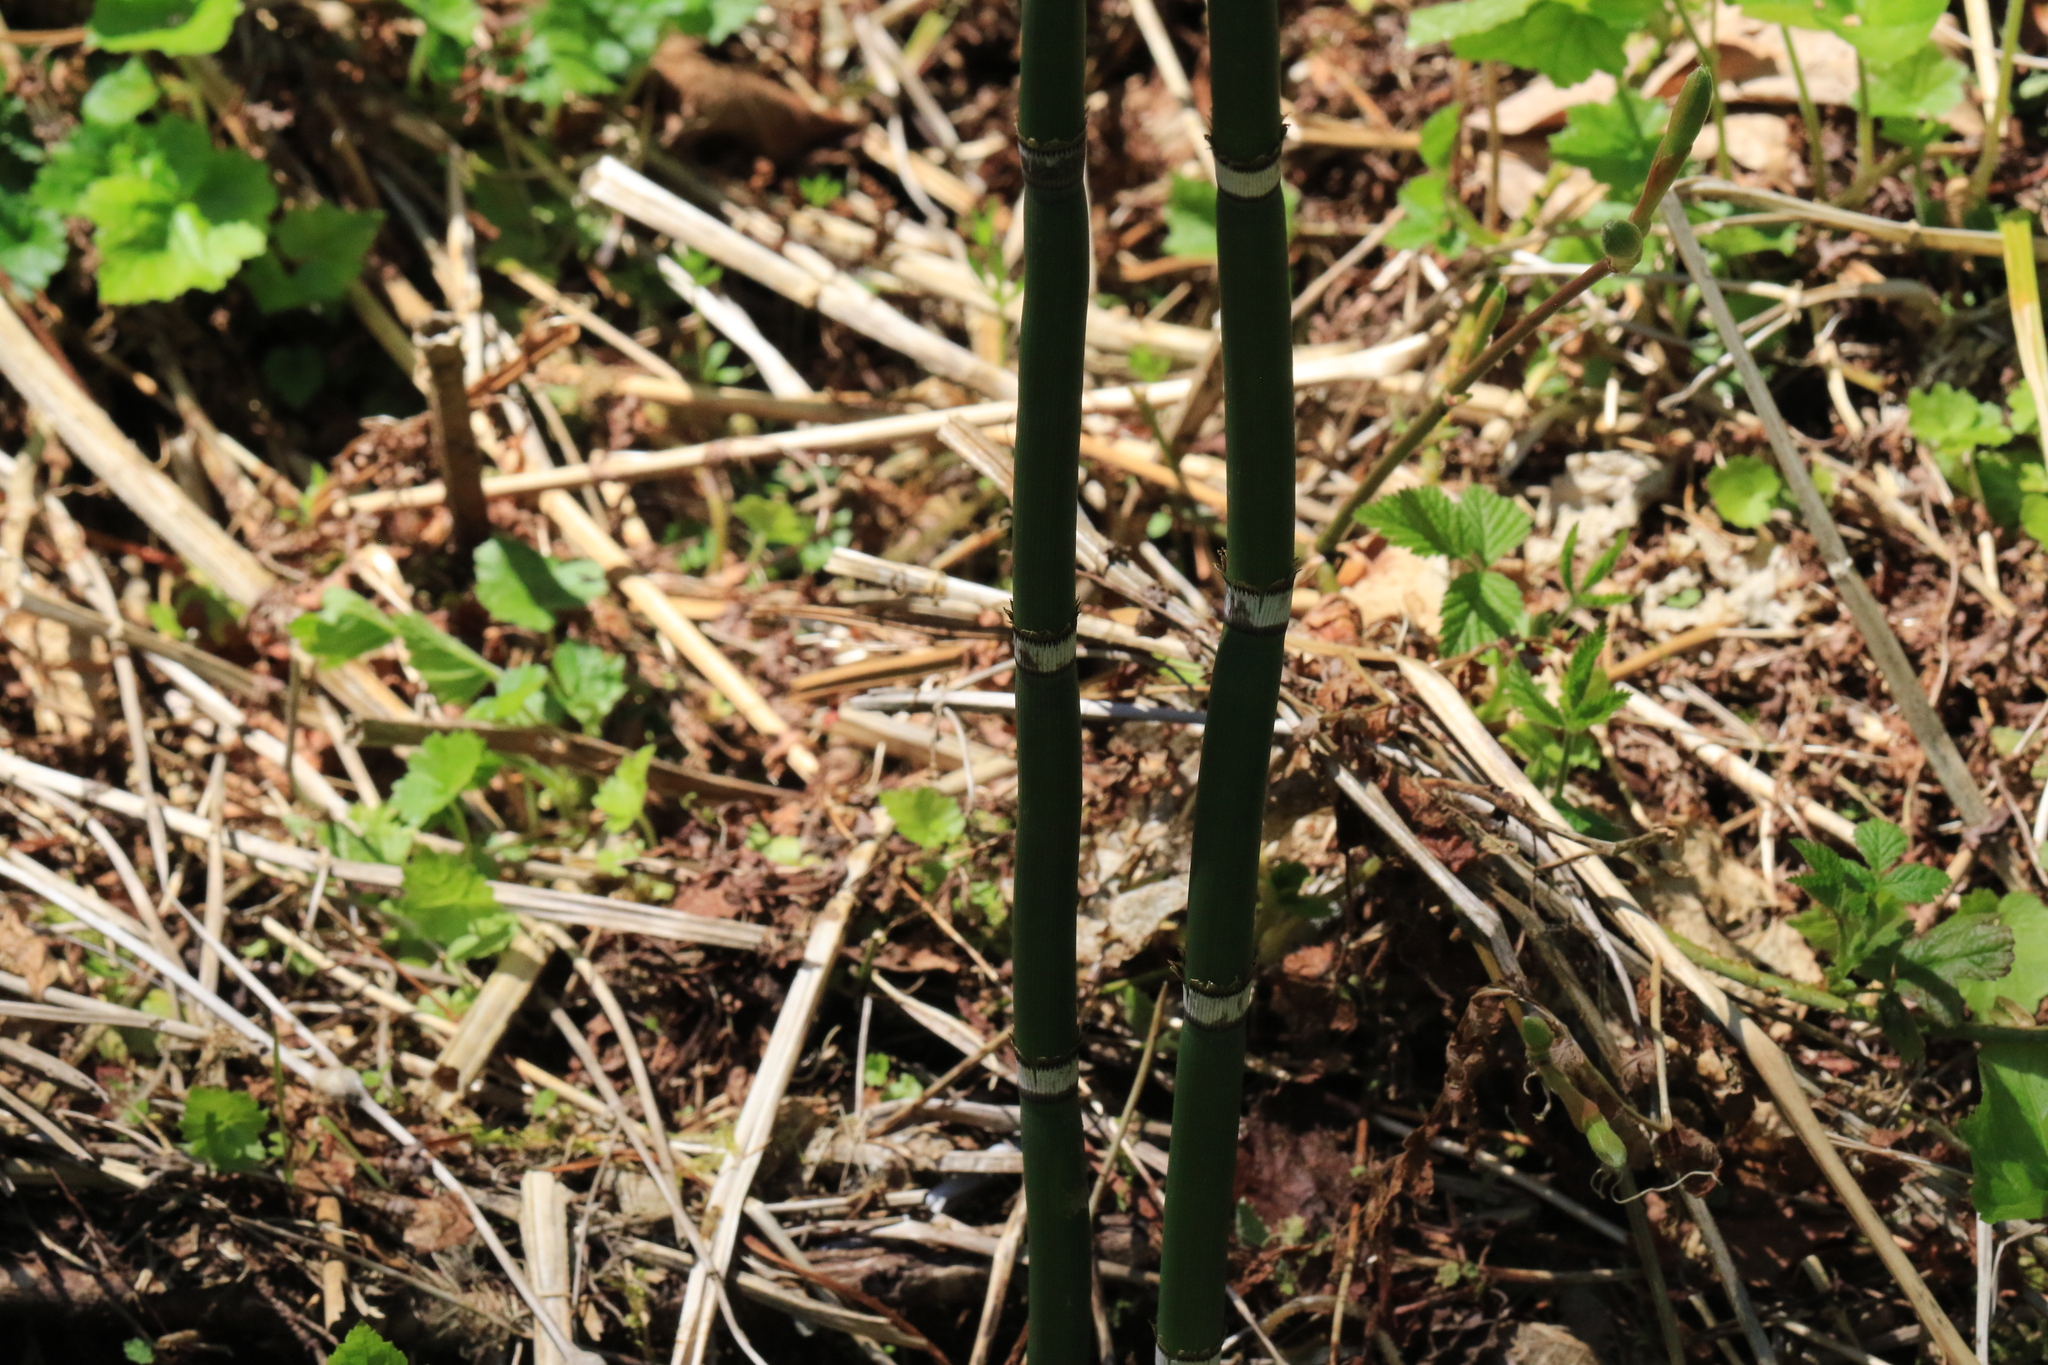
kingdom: Plantae
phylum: Tracheophyta
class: Polypodiopsida
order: Equisetales
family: Equisetaceae
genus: Equisetum
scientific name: Equisetum hyemale
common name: Rough horsetail
